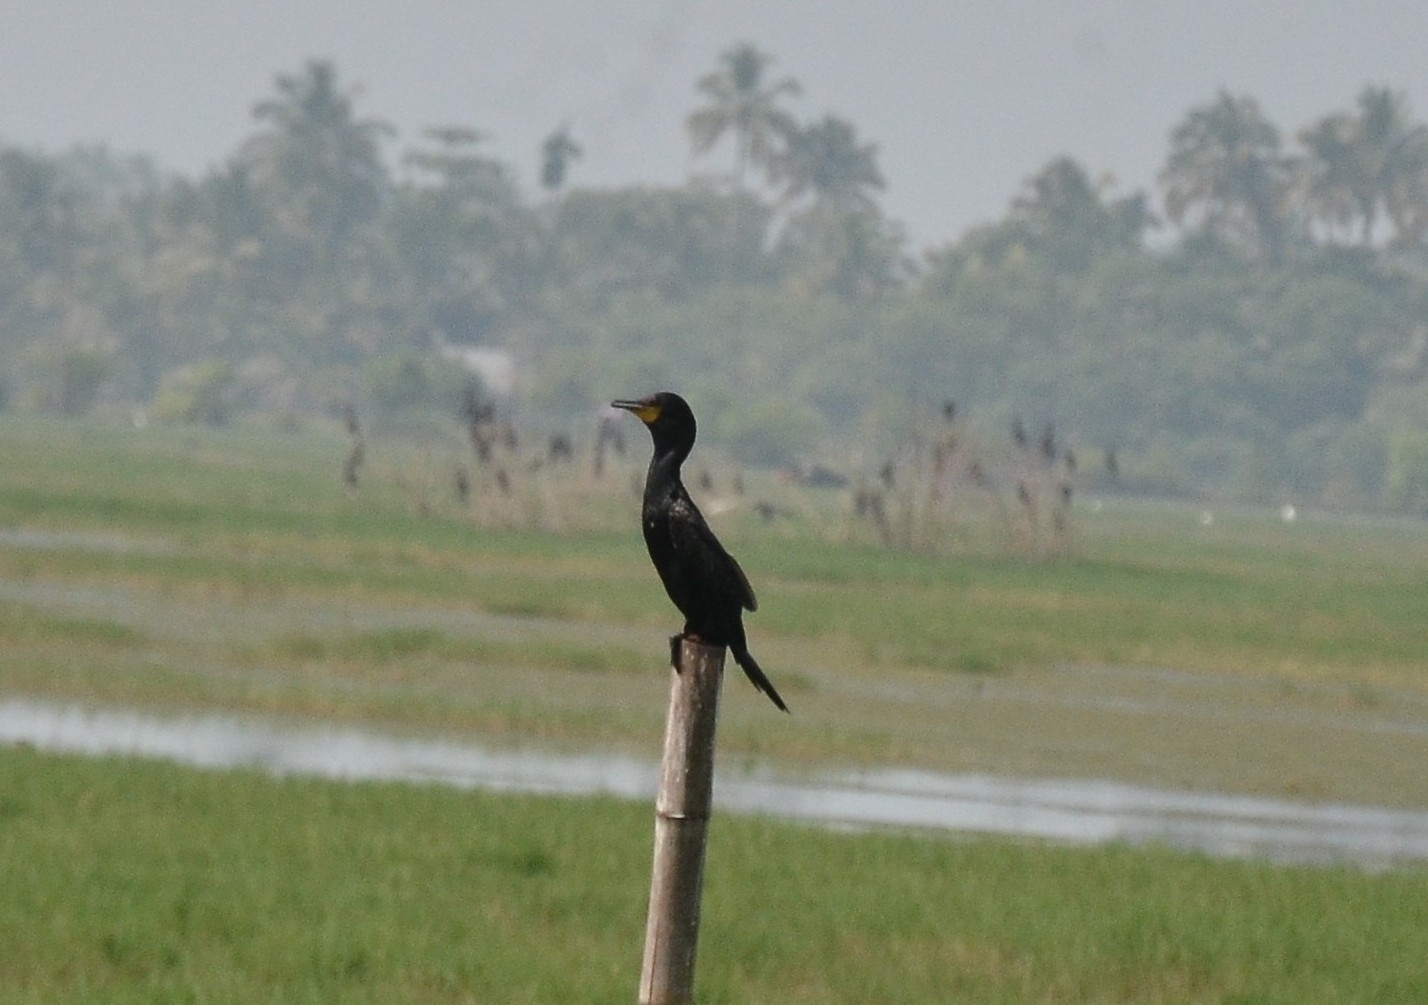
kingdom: Animalia
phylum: Chordata
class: Aves
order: Suliformes
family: Phalacrocoracidae
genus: Microcarbo
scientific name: Microcarbo niger
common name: Little cormorant
